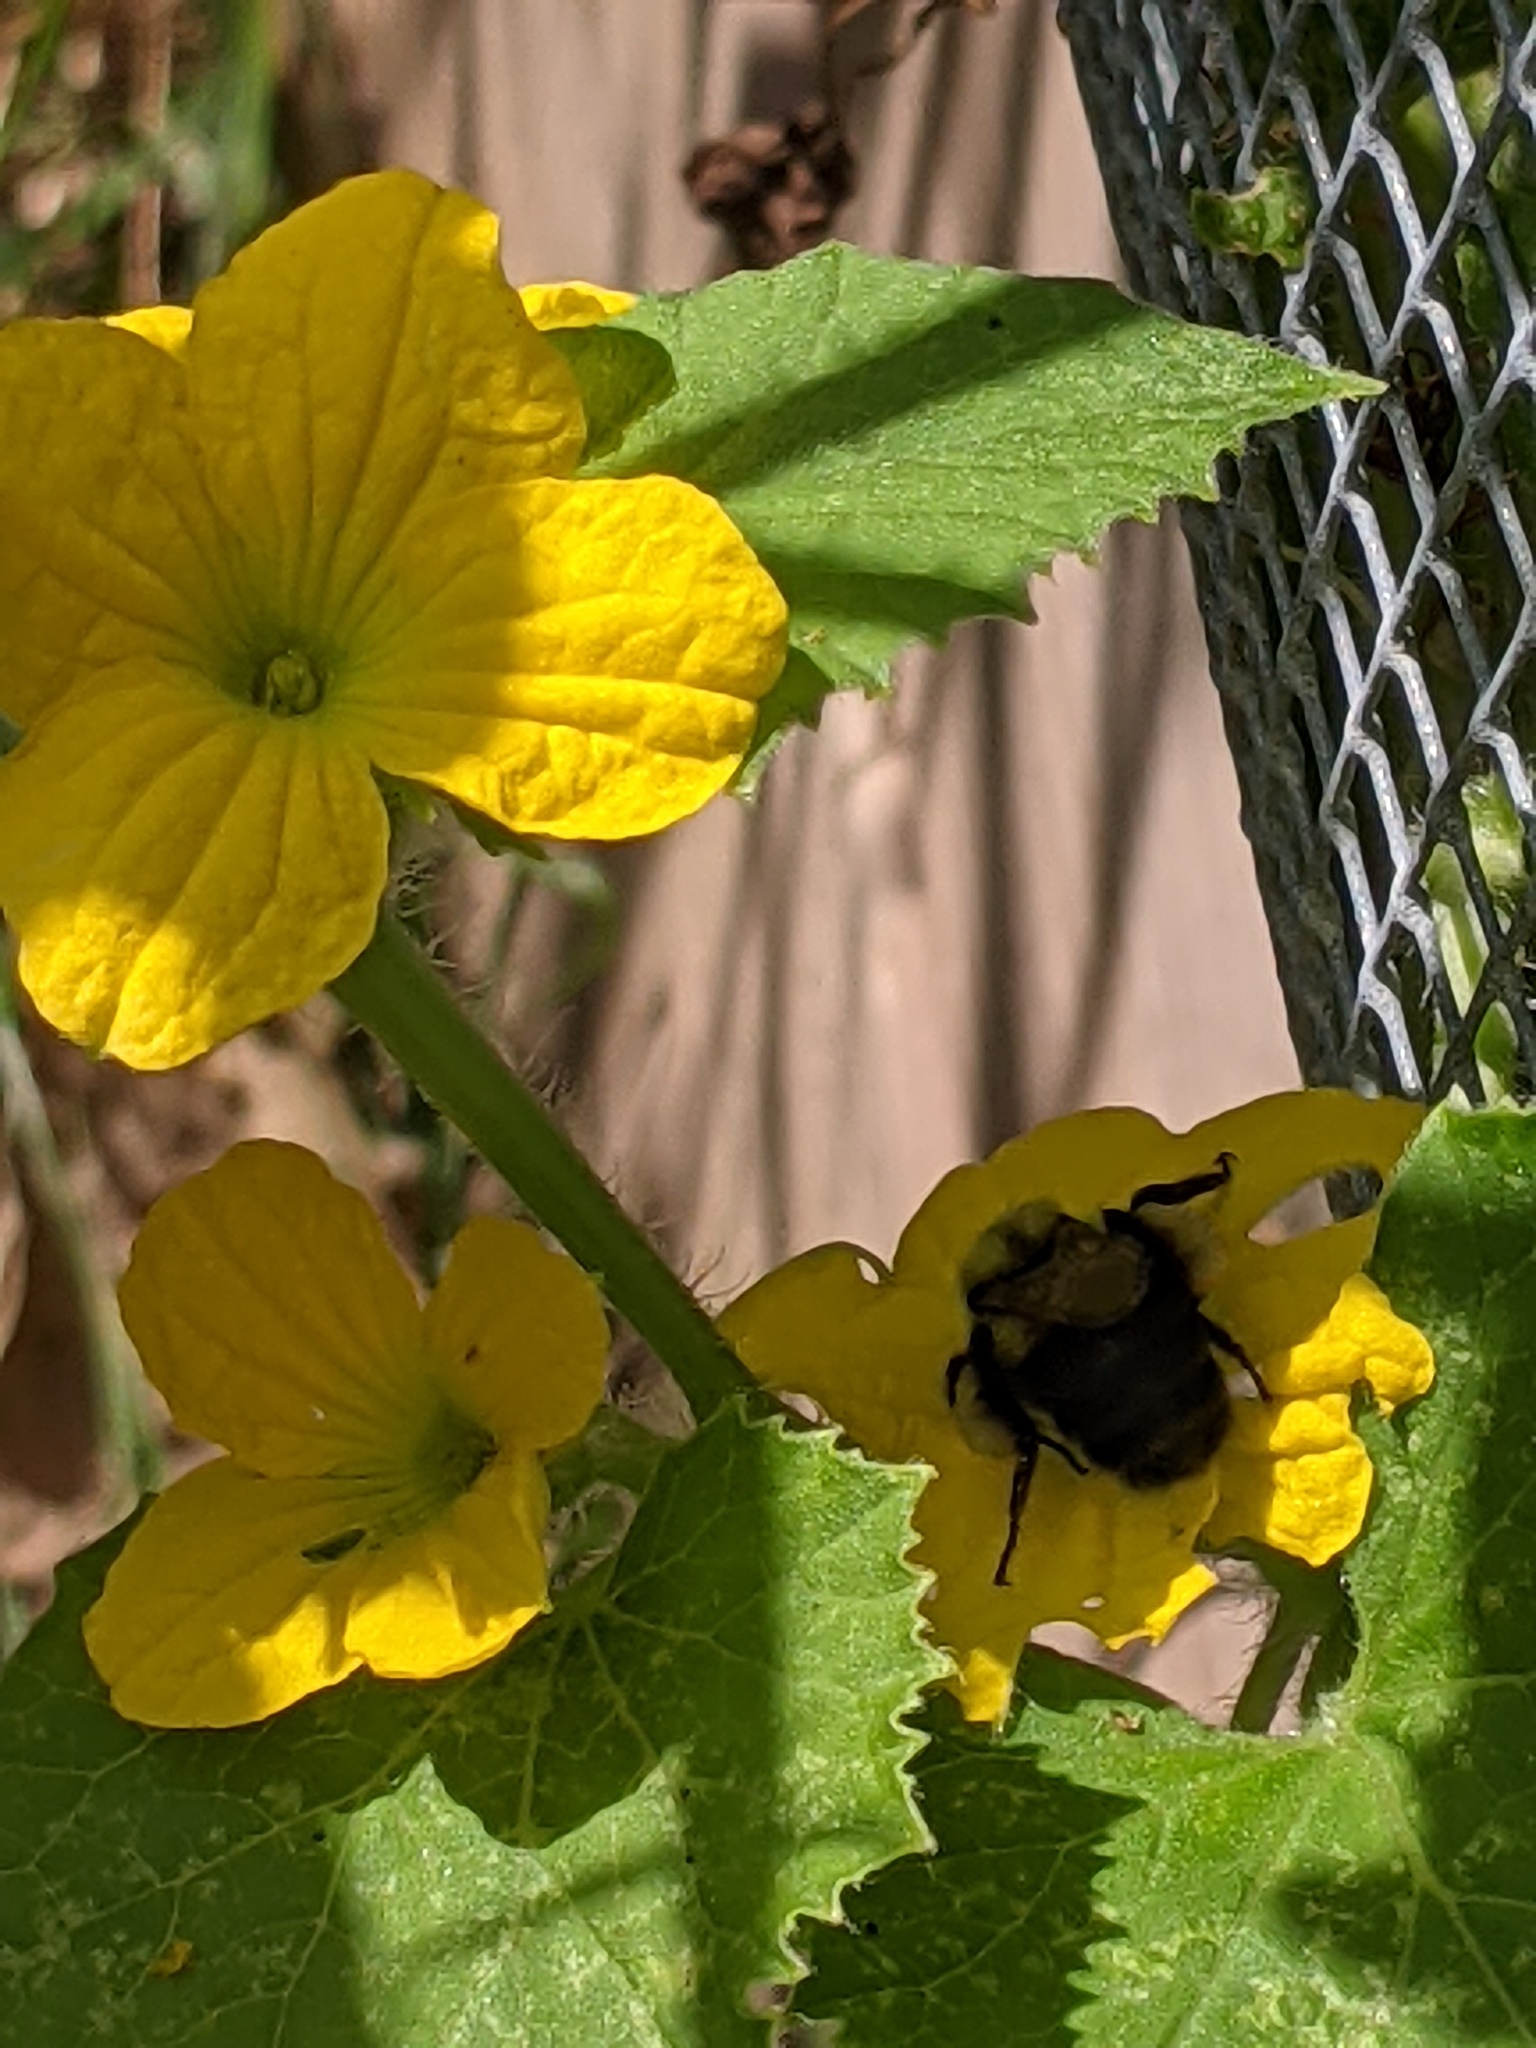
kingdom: Animalia
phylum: Arthropoda
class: Insecta
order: Hymenoptera
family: Apidae
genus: Bombus
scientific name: Bombus impatiens
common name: Common eastern bumble bee
